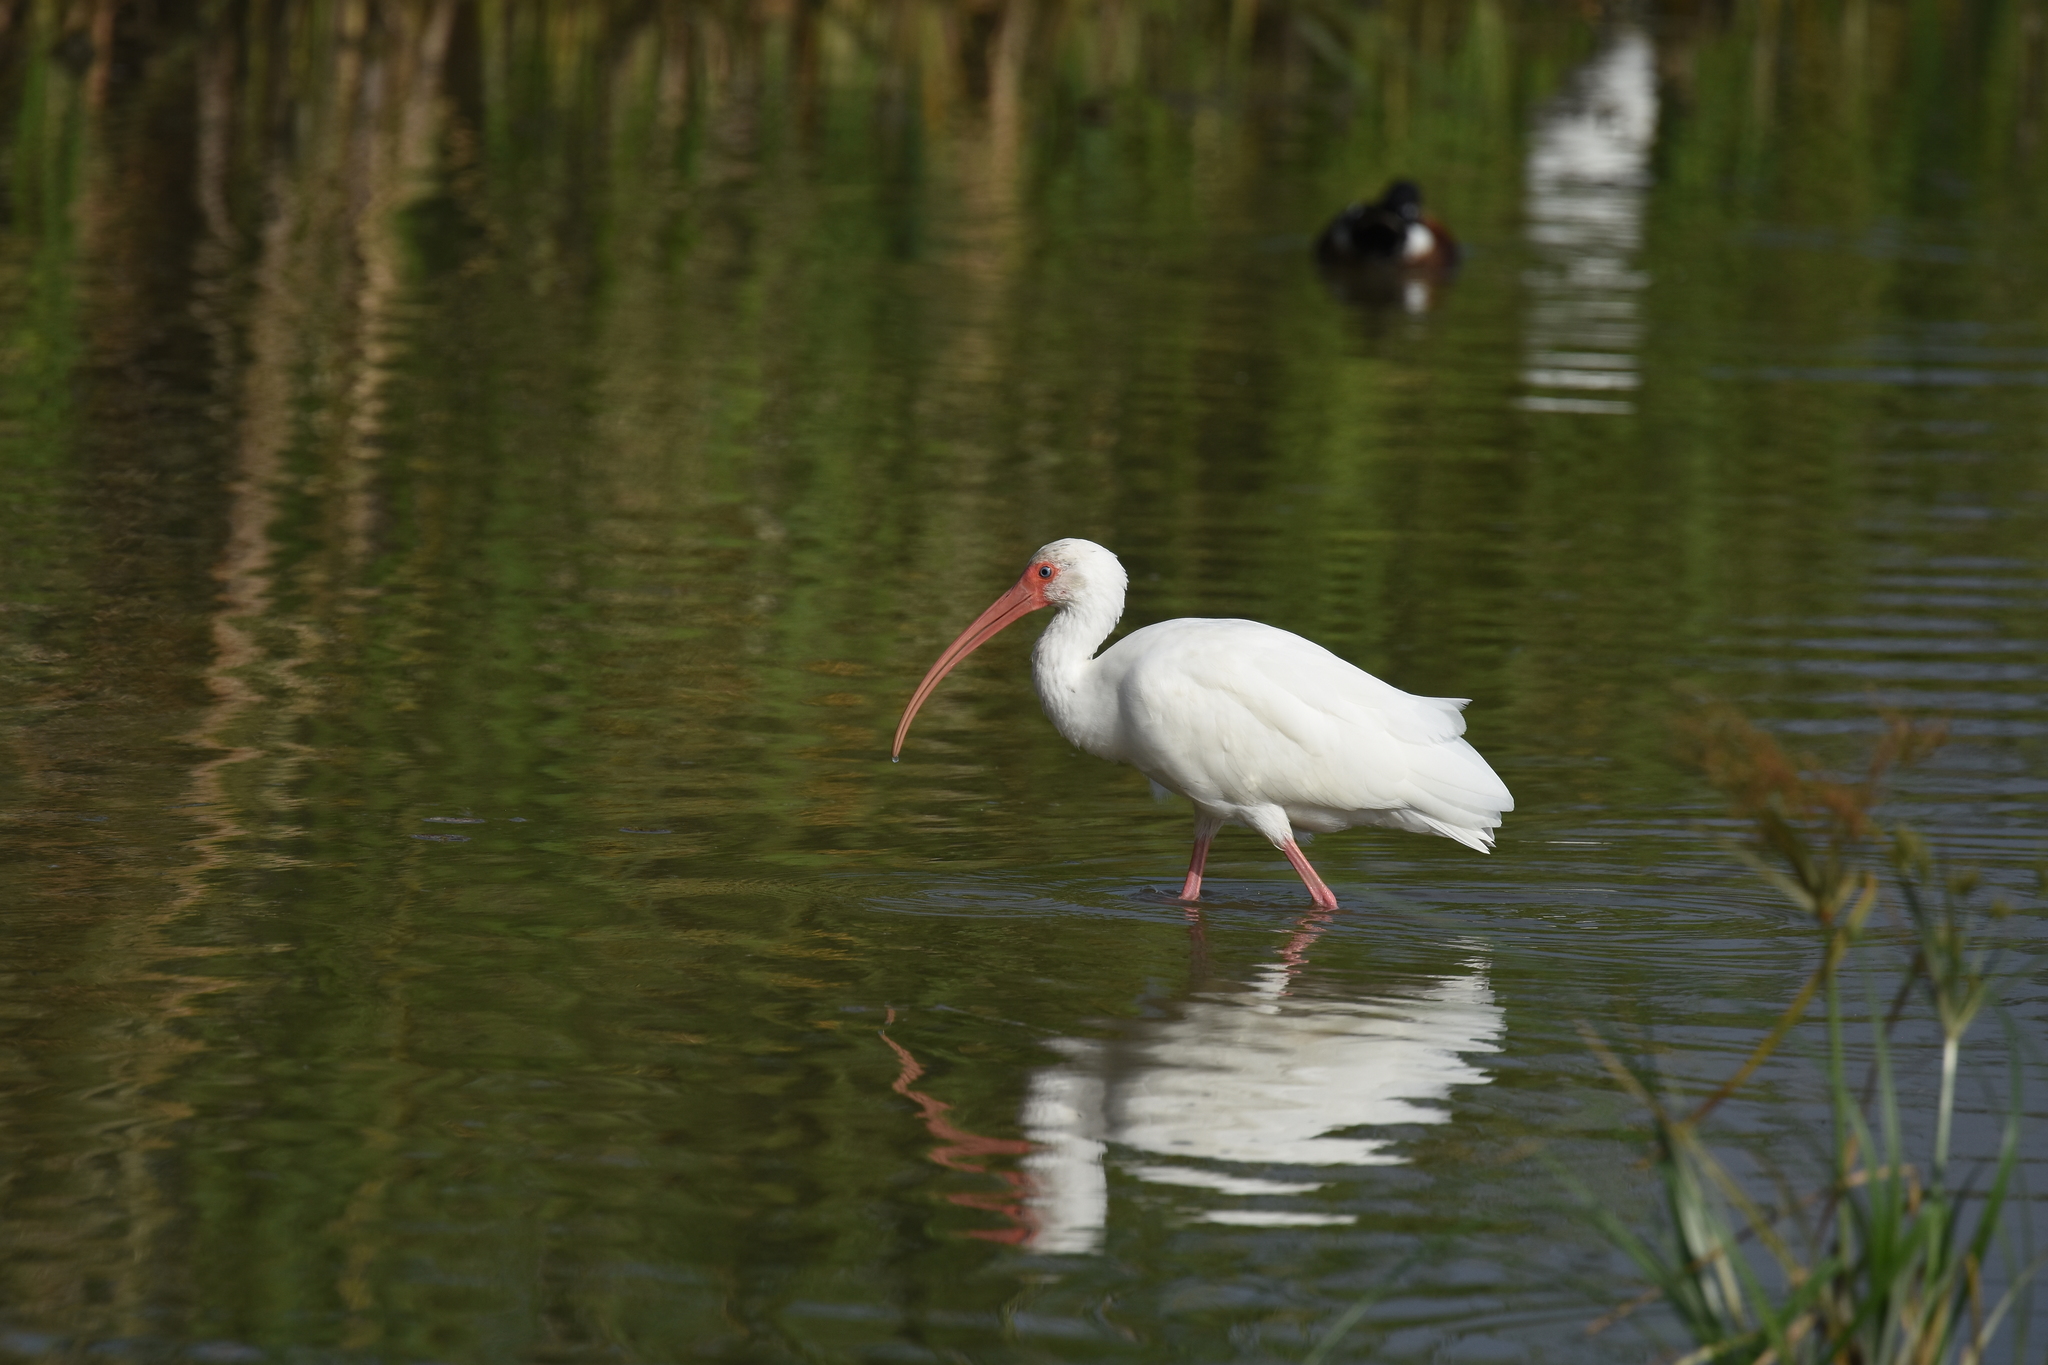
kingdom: Animalia
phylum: Chordata
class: Aves
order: Pelecaniformes
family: Threskiornithidae
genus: Eudocimus
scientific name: Eudocimus albus
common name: White ibis
